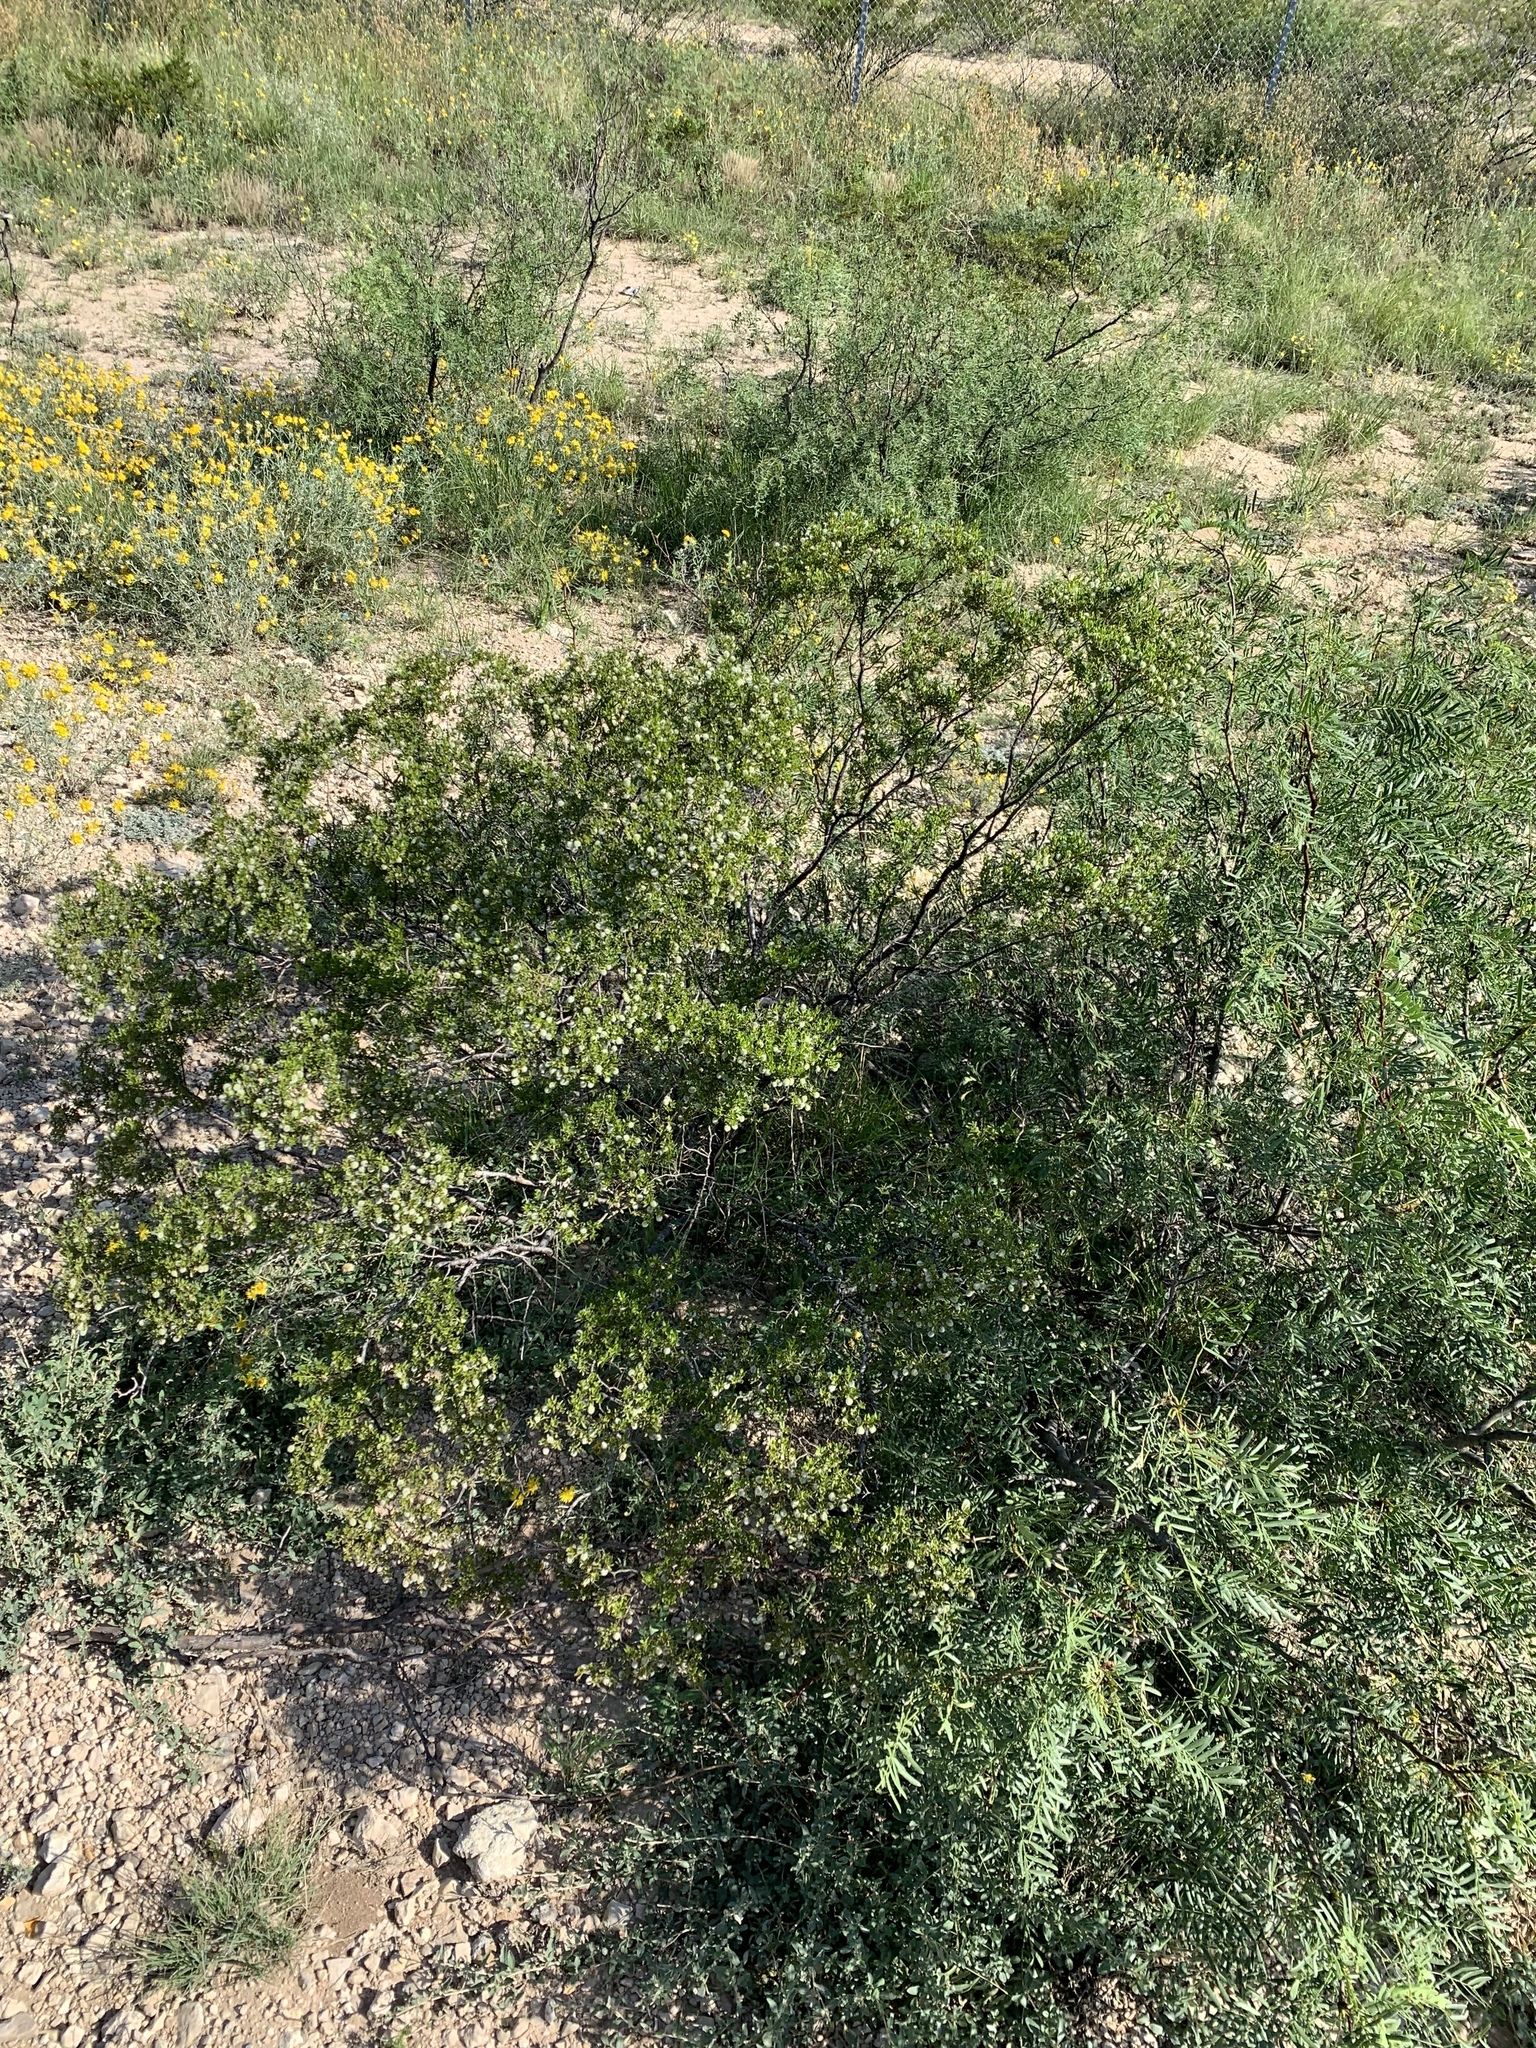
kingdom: Plantae
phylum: Tracheophyta
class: Magnoliopsida
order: Zygophyllales
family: Zygophyllaceae
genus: Larrea
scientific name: Larrea tridentata
